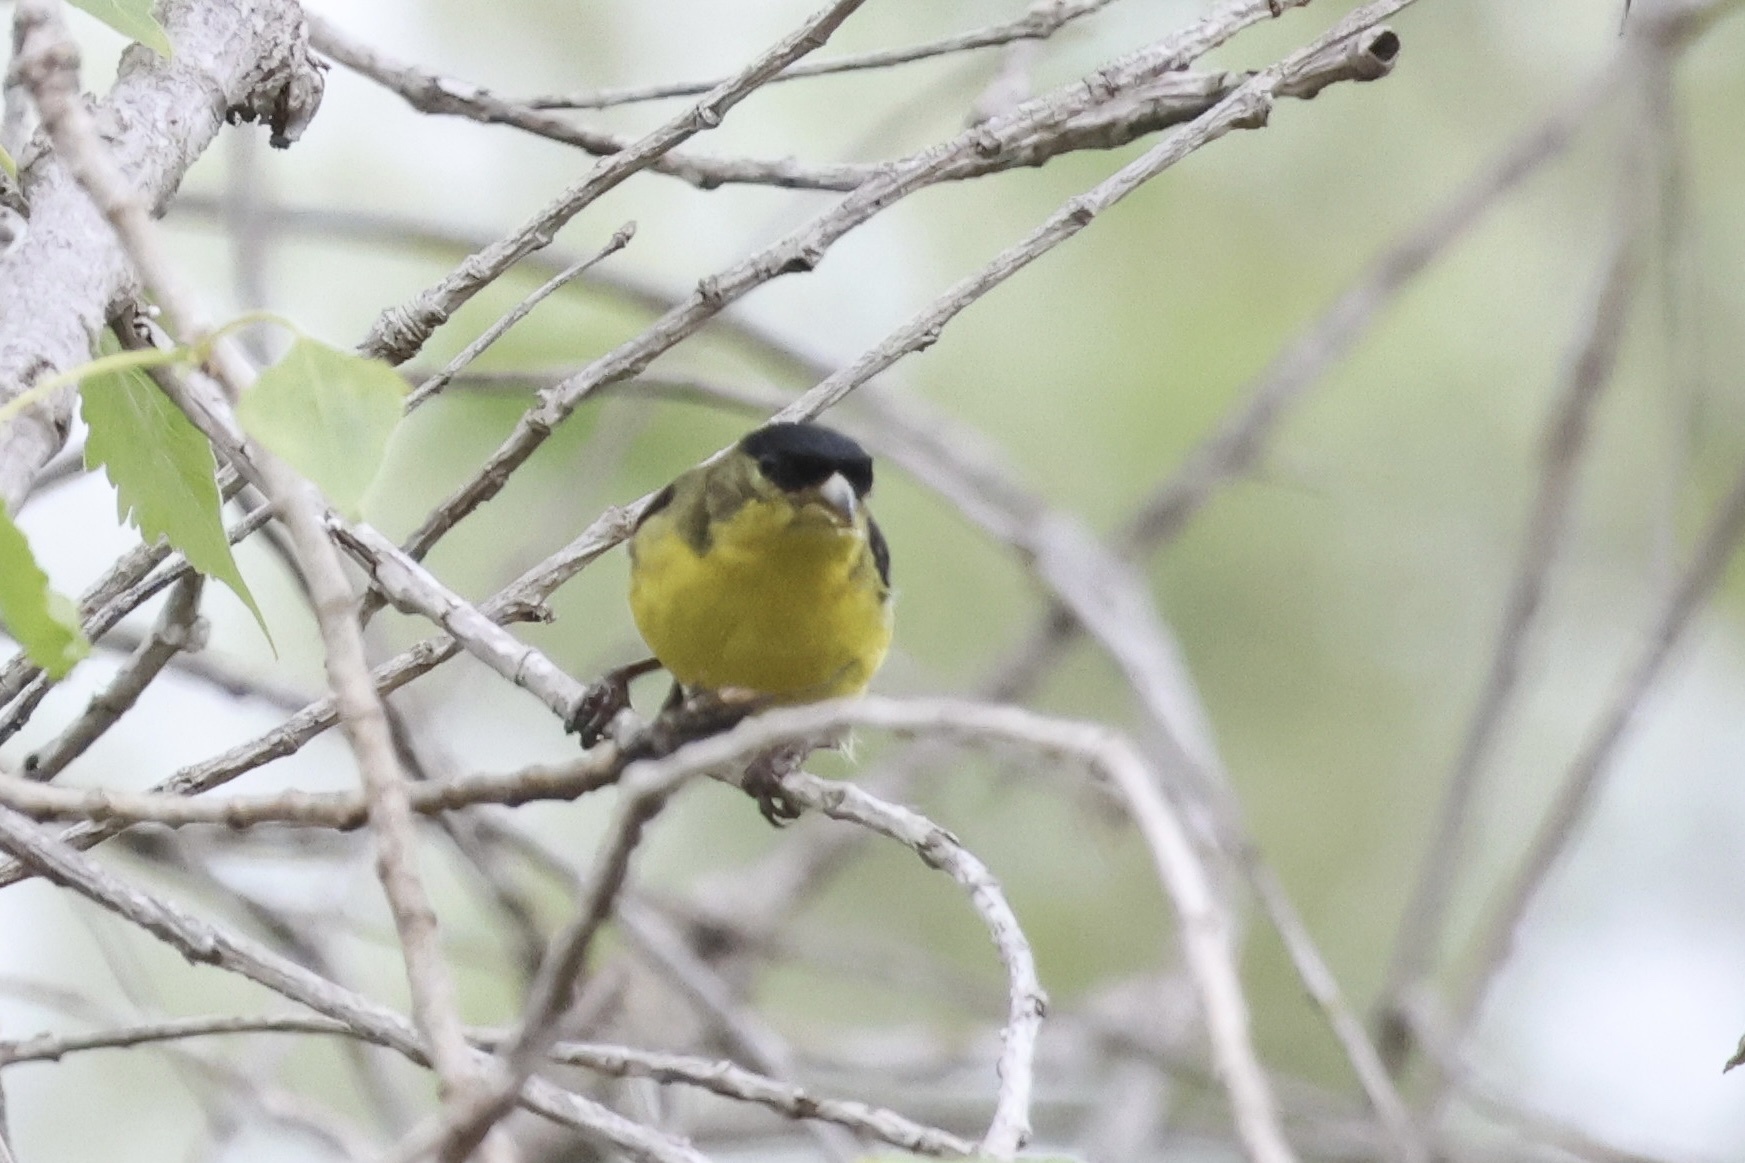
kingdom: Animalia
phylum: Chordata
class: Aves
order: Passeriformes
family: Fringillidae
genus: Spinus
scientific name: Spinus psaltria
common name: Lesser goldfinch
